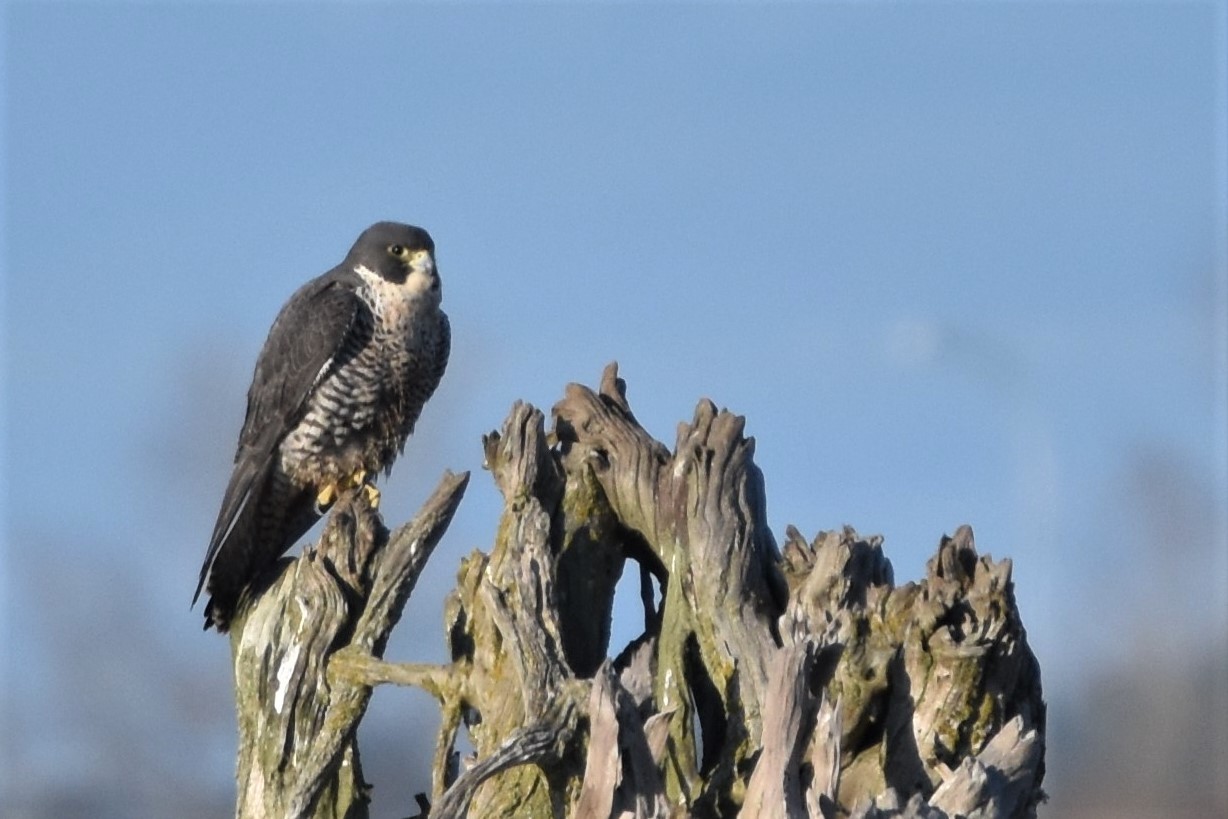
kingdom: Animalia
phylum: Chordata
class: Aves
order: Falconiformes
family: Falconidae
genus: Falco
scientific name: Falco peregrinus
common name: Peregrine falcon
